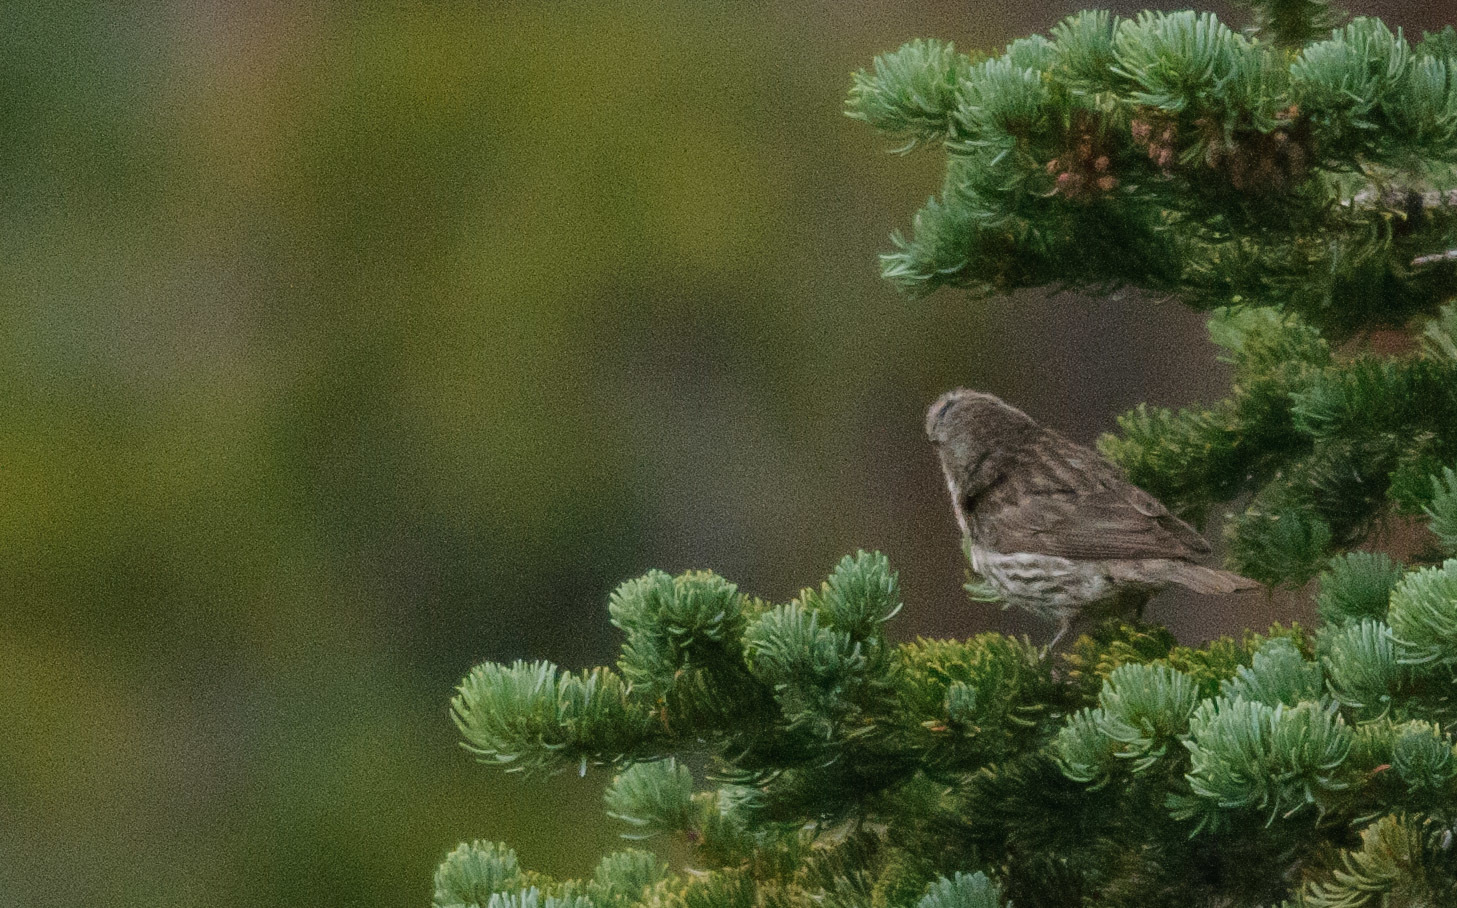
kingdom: Animalia
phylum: Chordata
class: Aves
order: Passeriformes
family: Fringillidae
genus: Haemorhous
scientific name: Haemorhous mexicanus
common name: House finch
